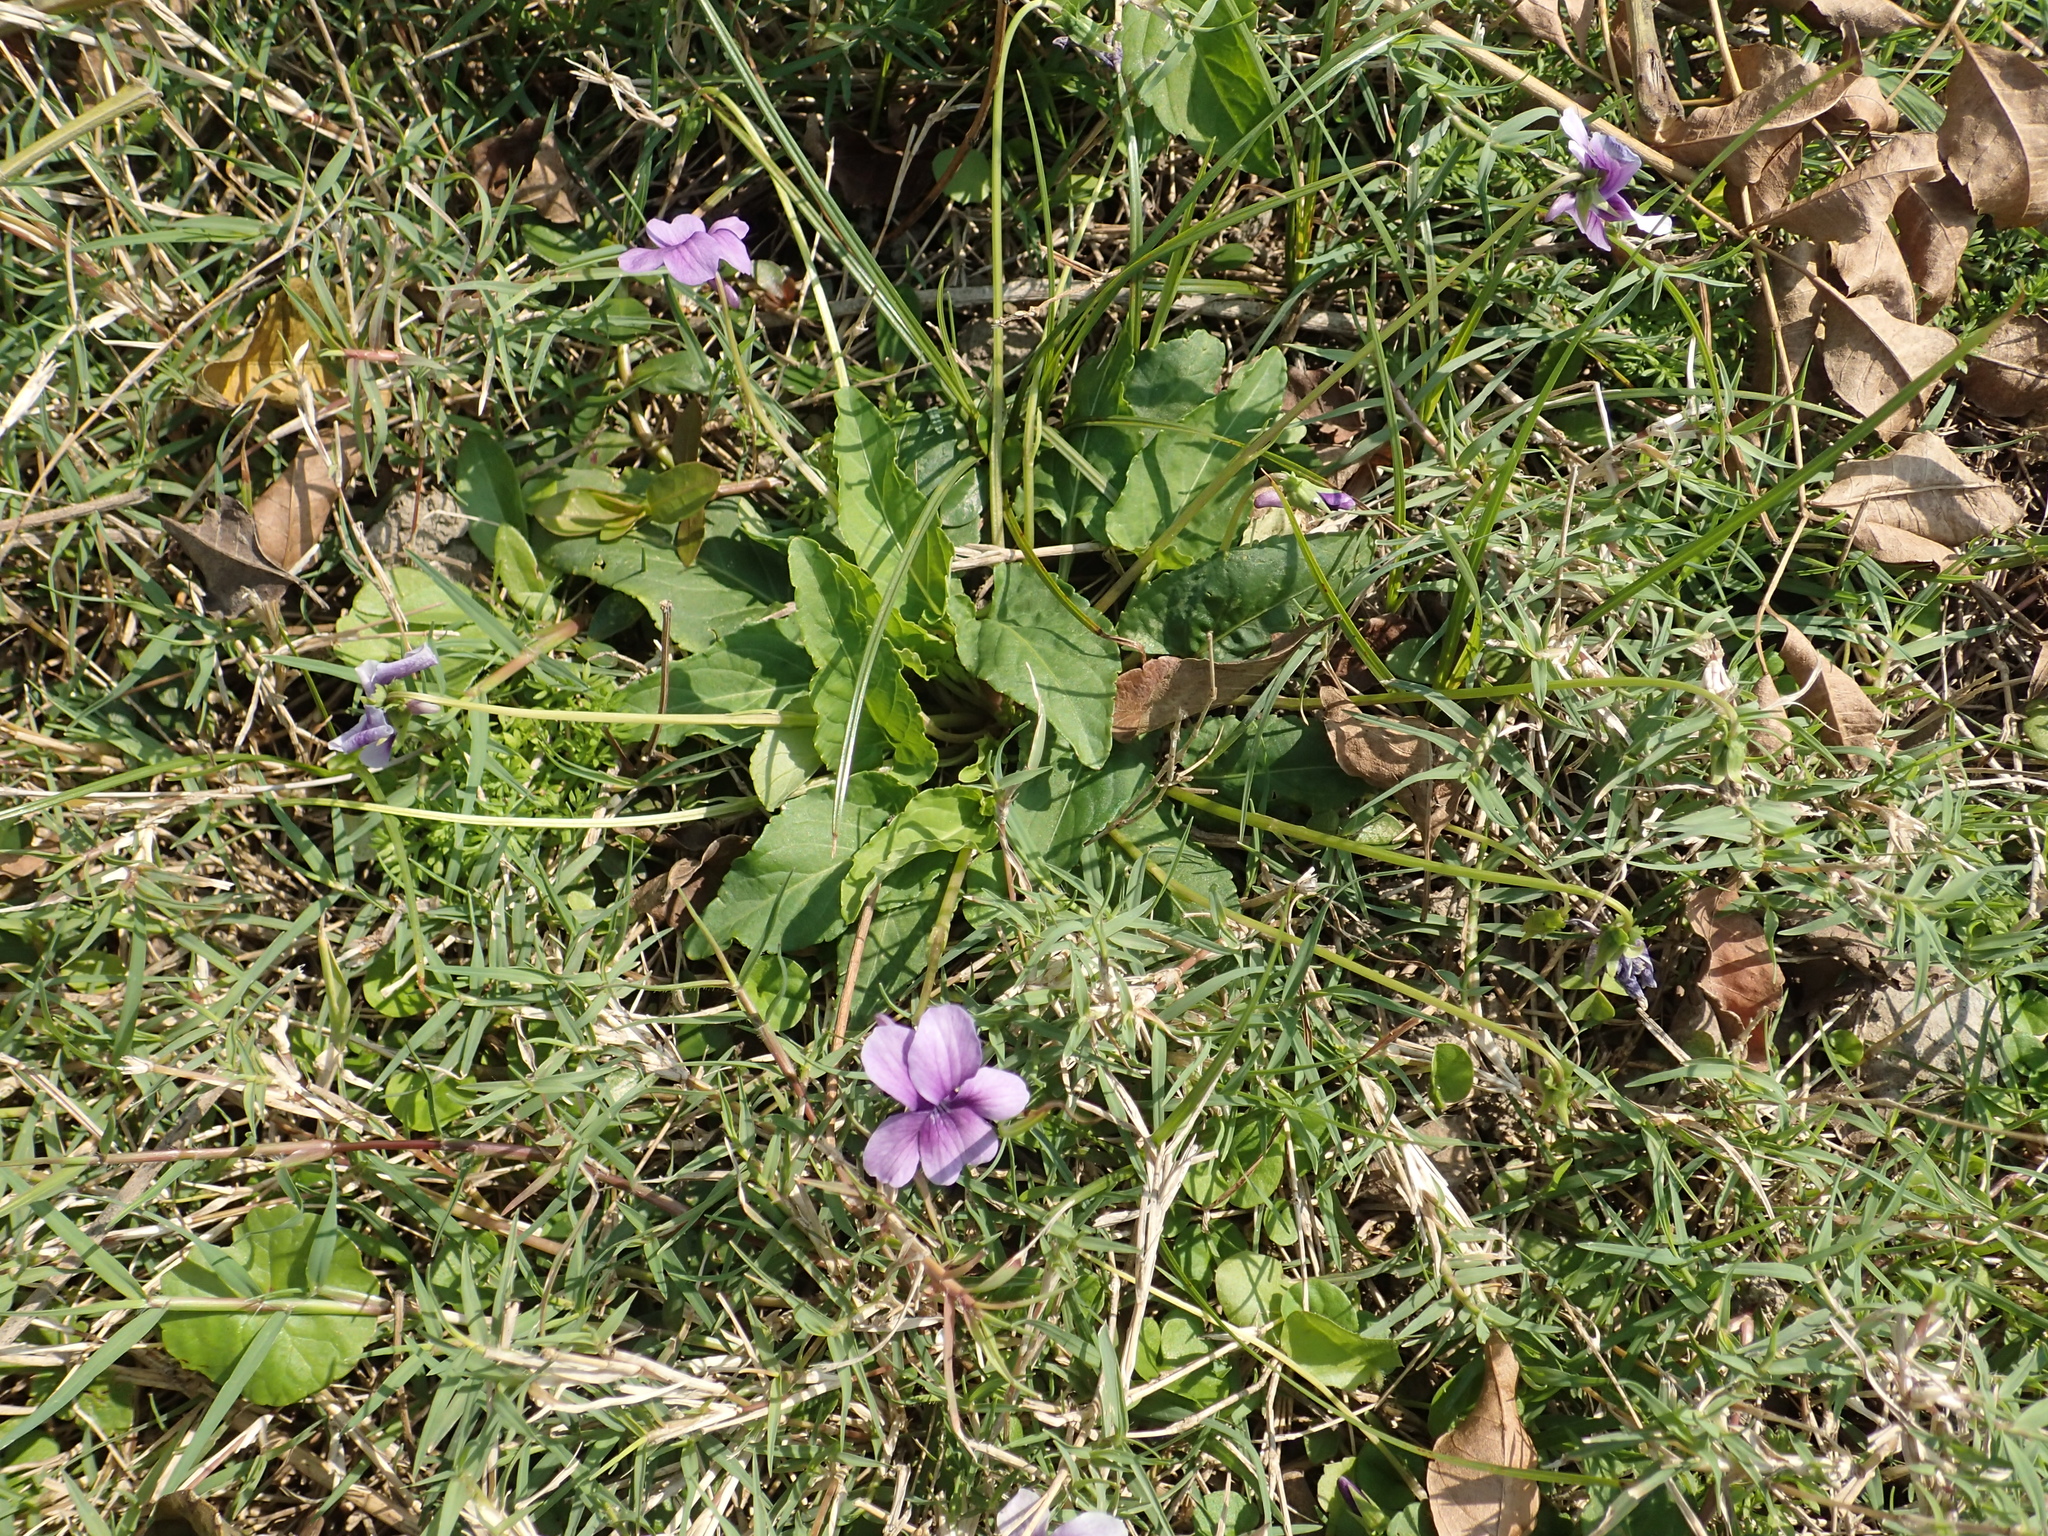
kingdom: Plantae
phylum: Tracheophyta
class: Magnoliopsida
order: Malpighiales
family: Violaceae
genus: Viola
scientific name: Viola
